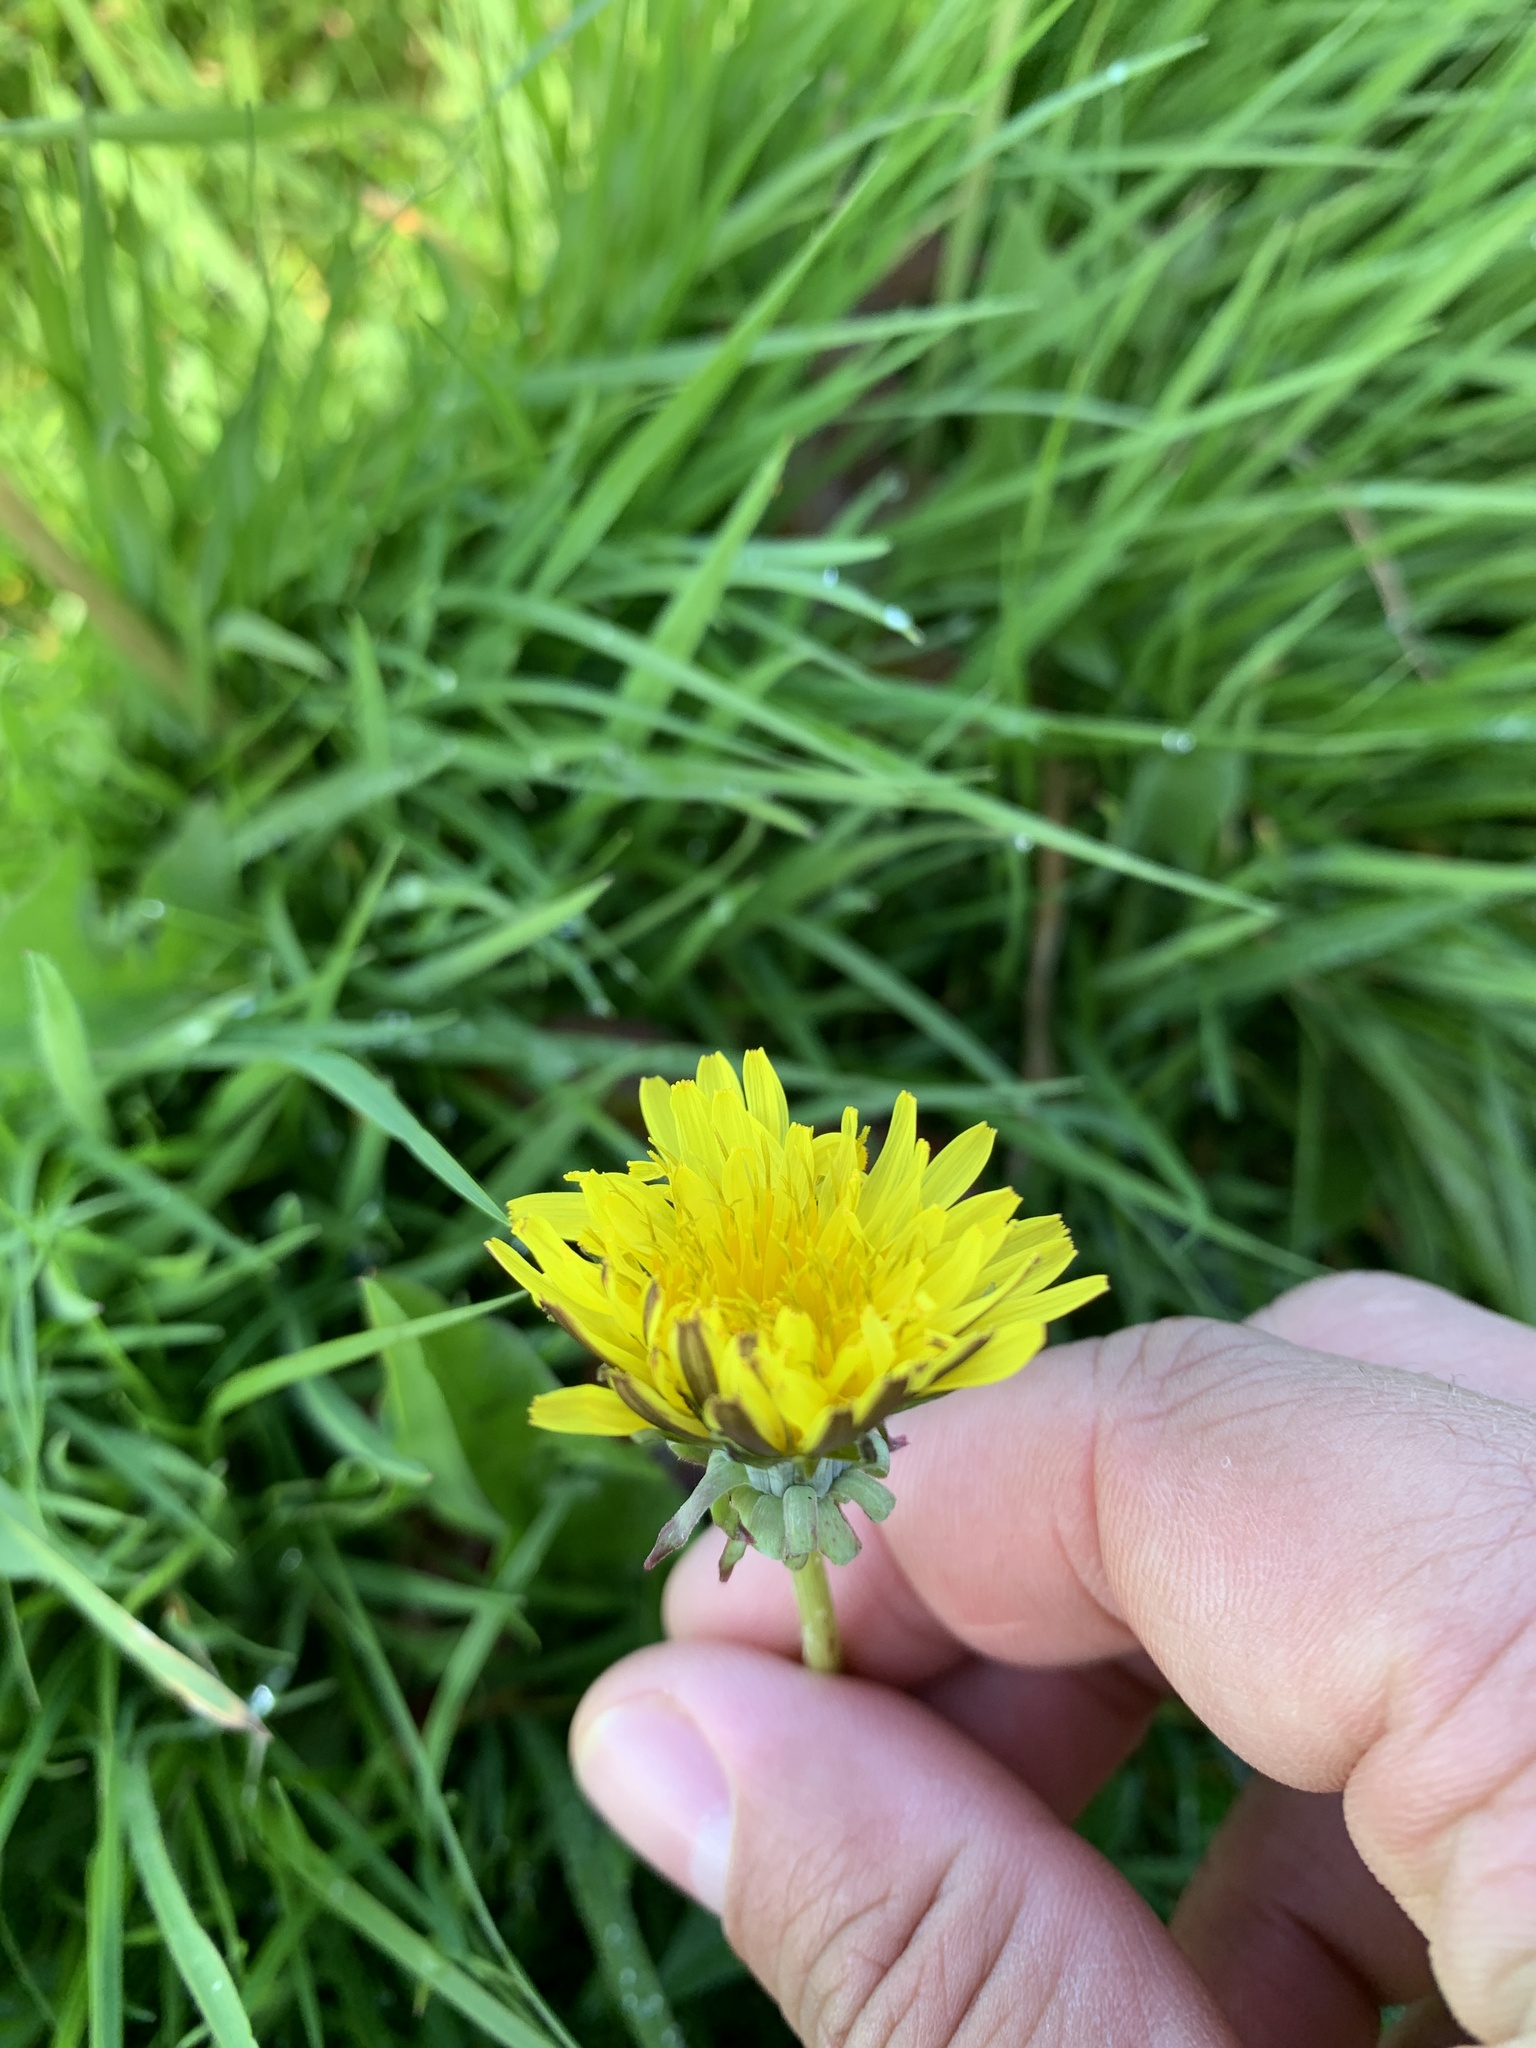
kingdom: Plantae
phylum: Tracheophyta
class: Magnoliopsida
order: Asterales
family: Asteraceae
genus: Taraxacum
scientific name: Taraxacum officinale
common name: Common dandelion
